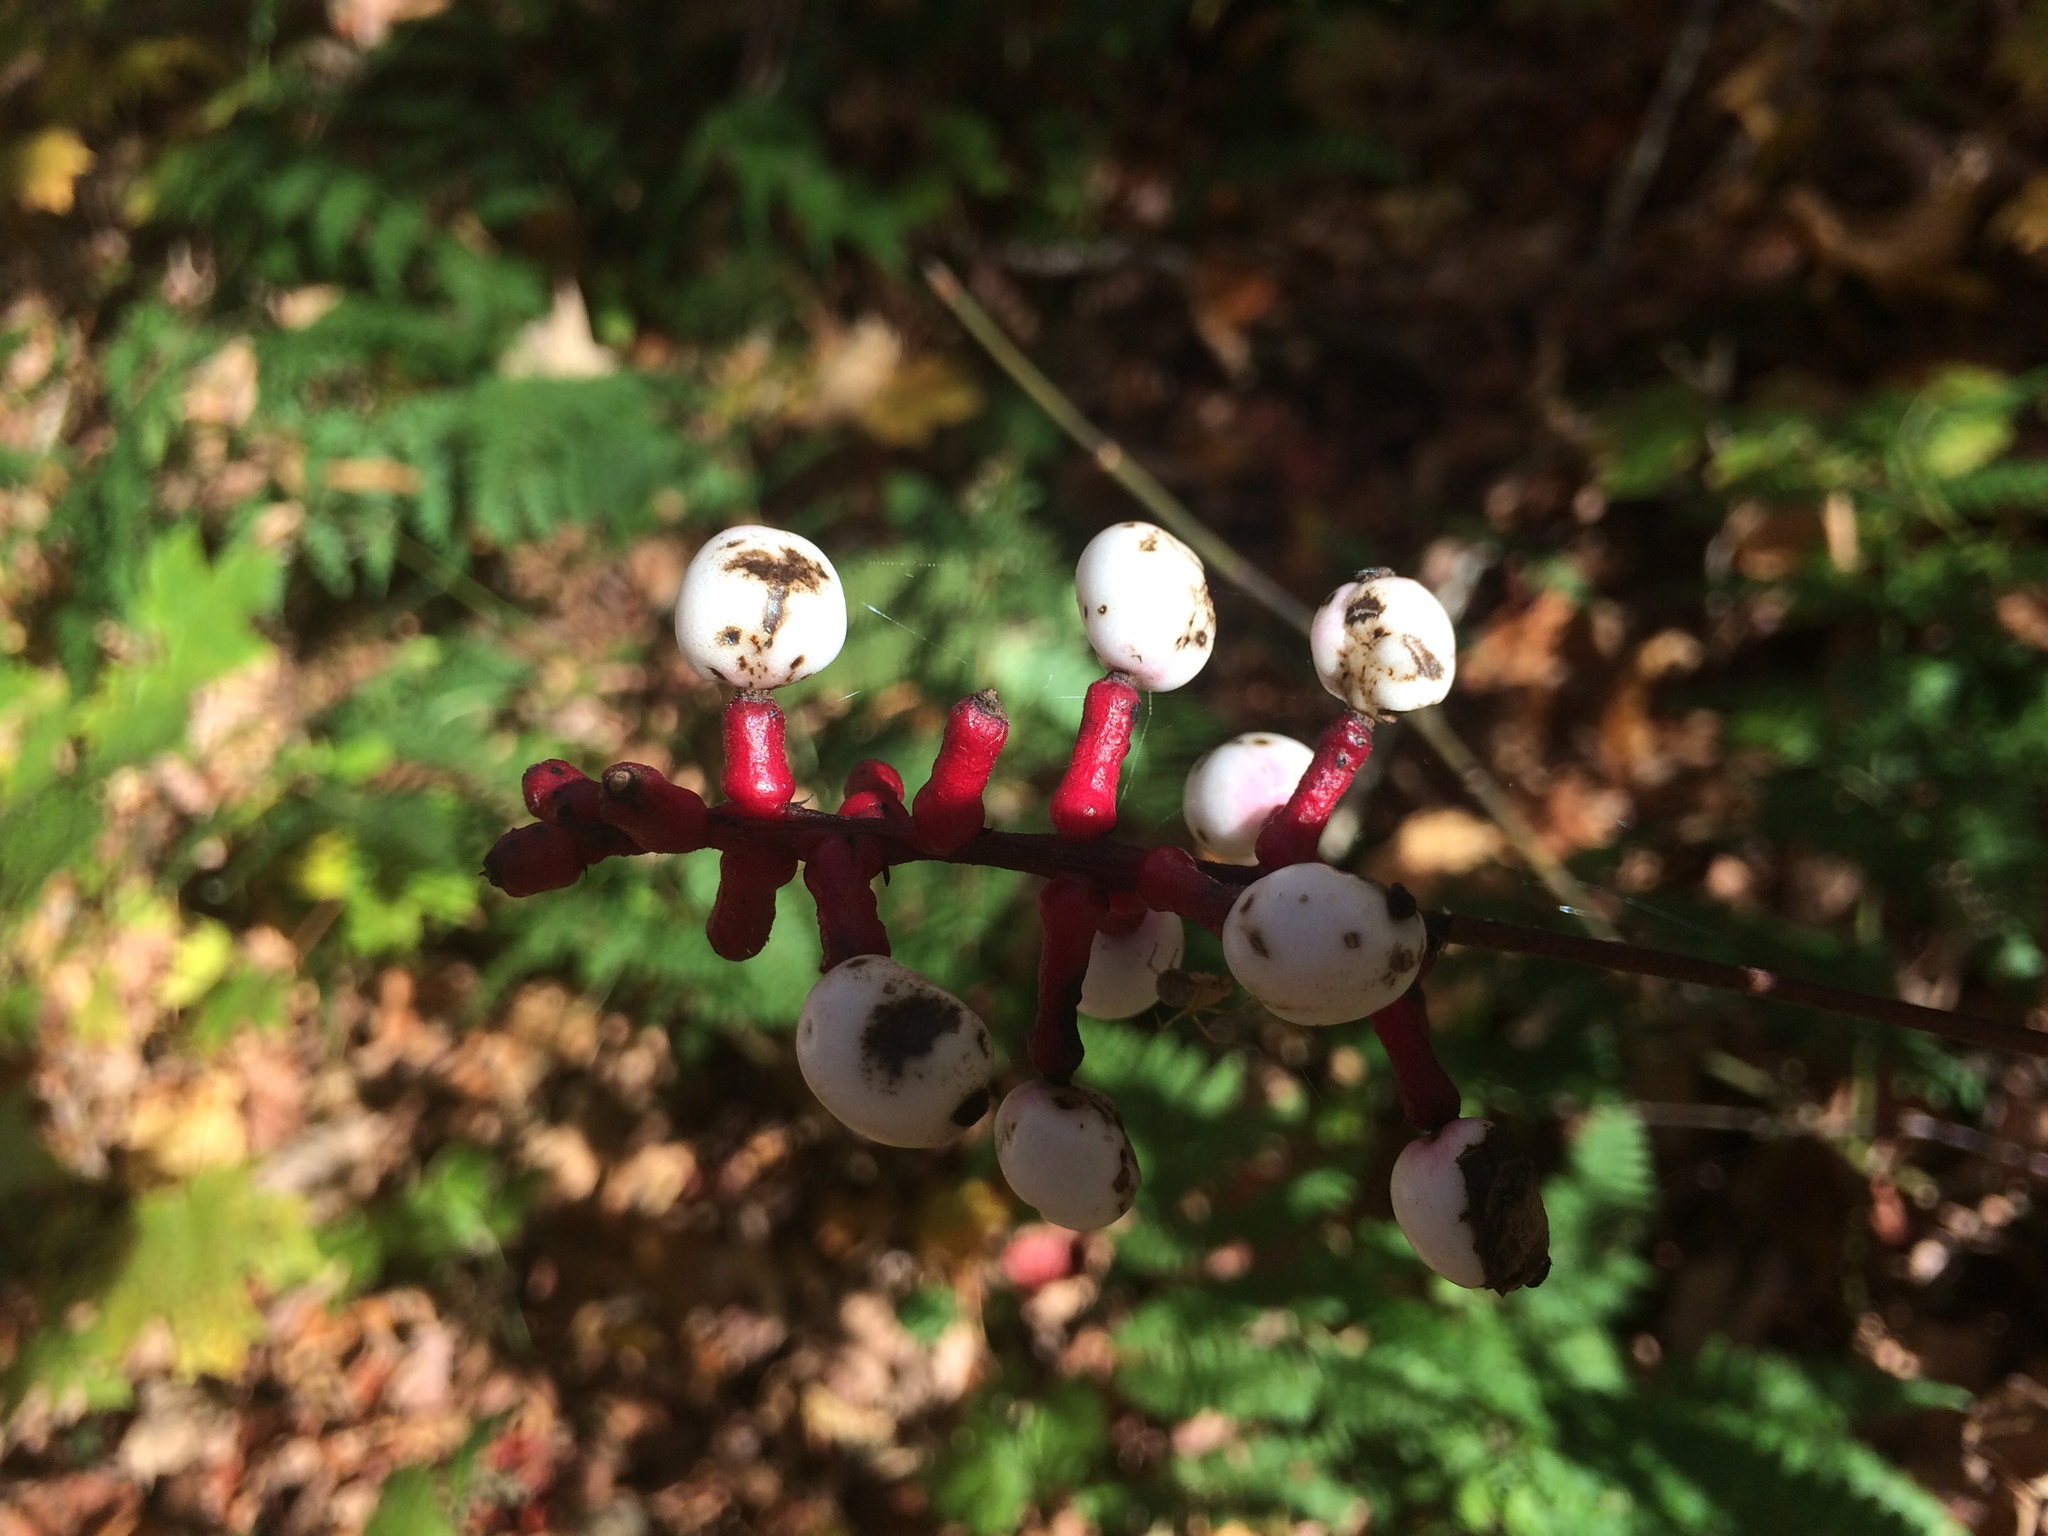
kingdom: Plantae
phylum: Tracheophyta
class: Magnoliopsida
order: Ranunculales
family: Ranunculaceae
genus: Actaea
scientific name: Actaea pachypoda
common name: Doll's-eyes
